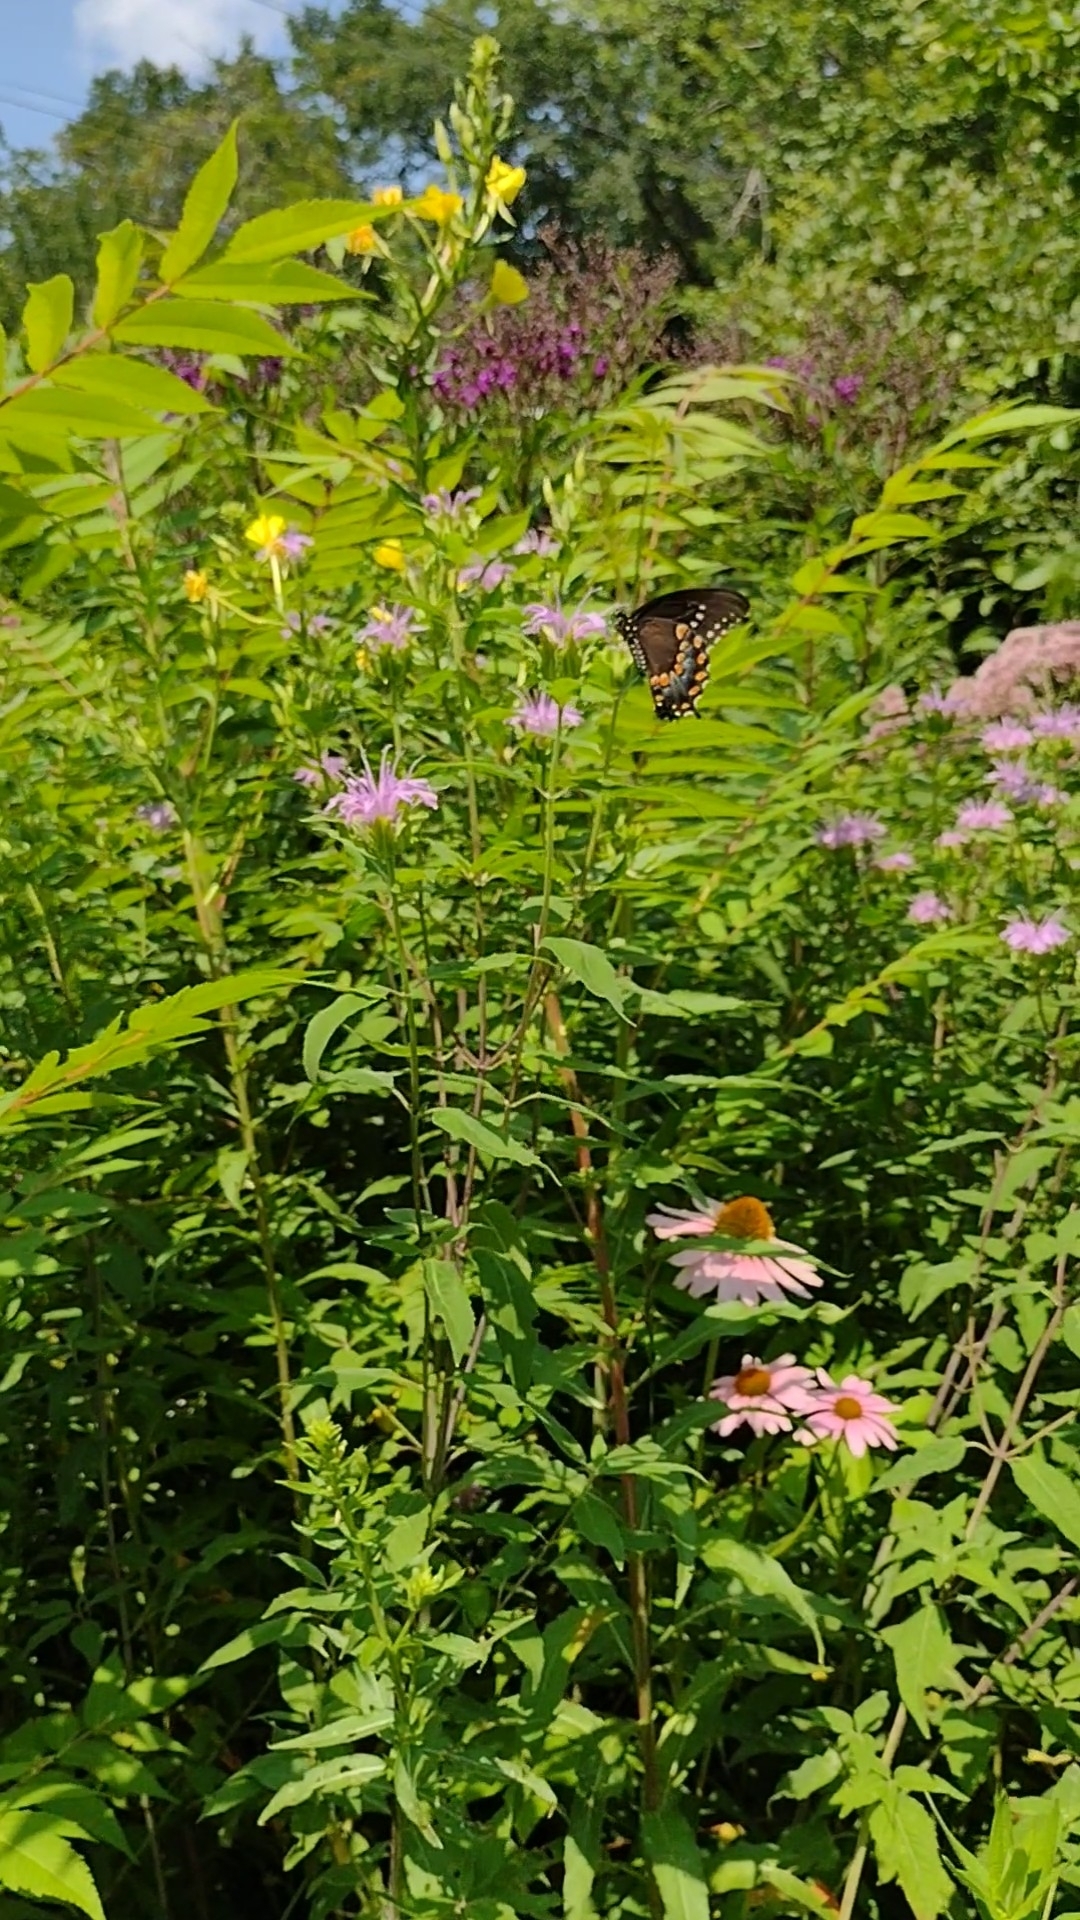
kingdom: Animalia
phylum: Arthropoda
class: Insecta
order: Lepidoptera
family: Papilionidae
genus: Papilio
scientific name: Papilio troilus
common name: Spicebush swallowtail
